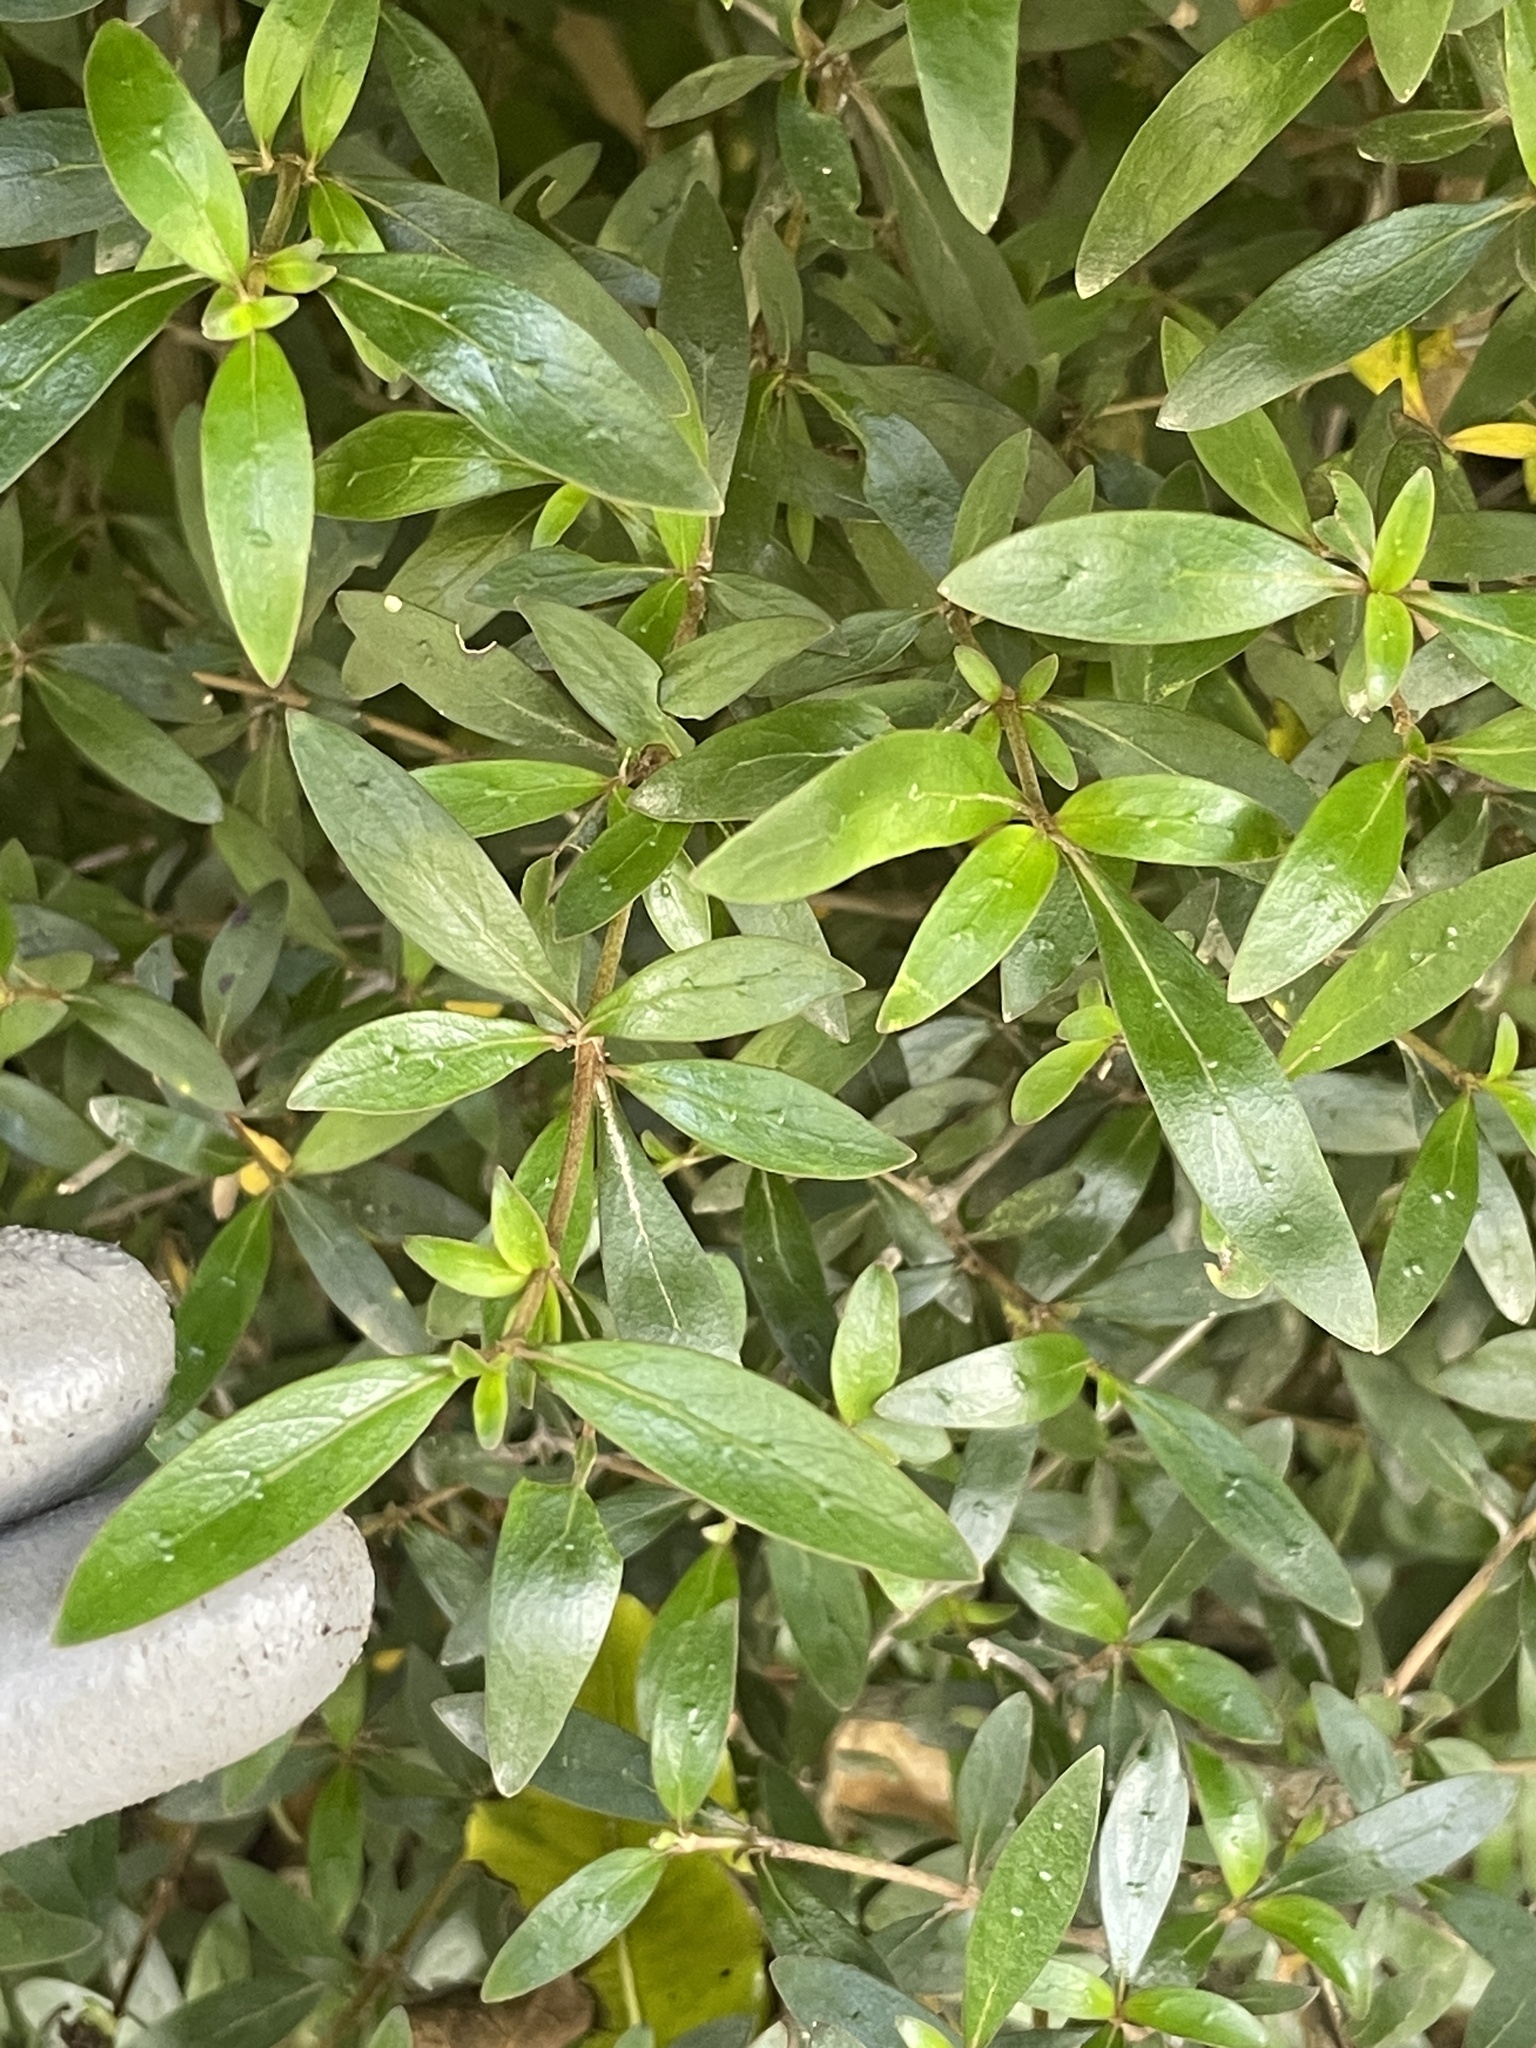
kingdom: Plantae
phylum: Tracheophyta
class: Magnoliopsida
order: Gentianales
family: Rubiaceae
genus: Coprosma
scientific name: Coprosma cunninghamii
